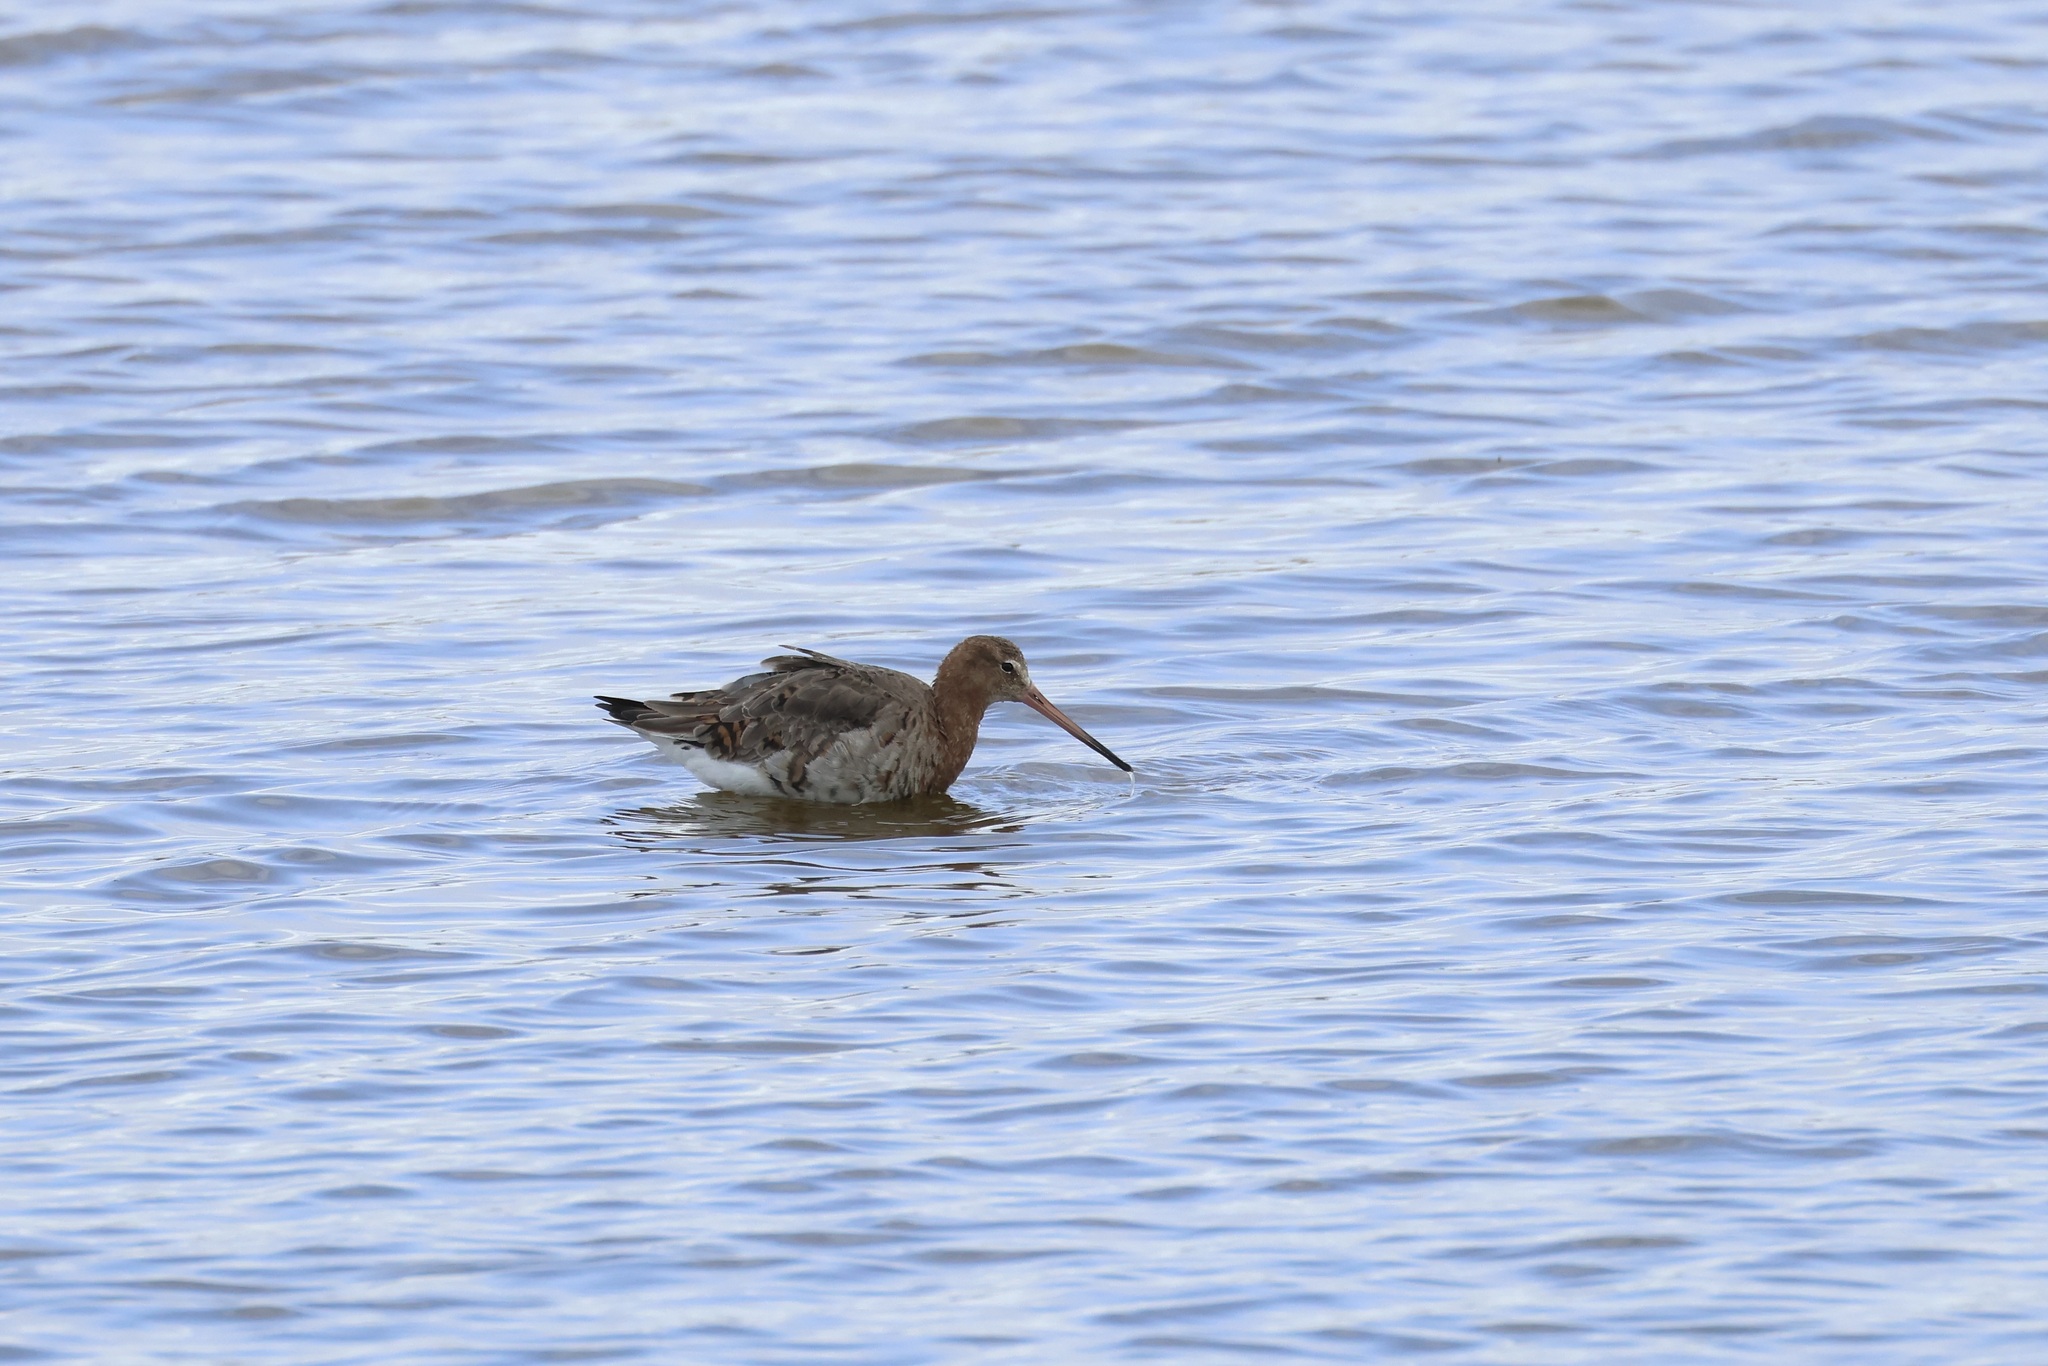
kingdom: Animalia
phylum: Chordata
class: Aves
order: Charadriiformes
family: Scolopacidae
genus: Limosa
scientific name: Limosa limosa
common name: Black-tailed godwit
